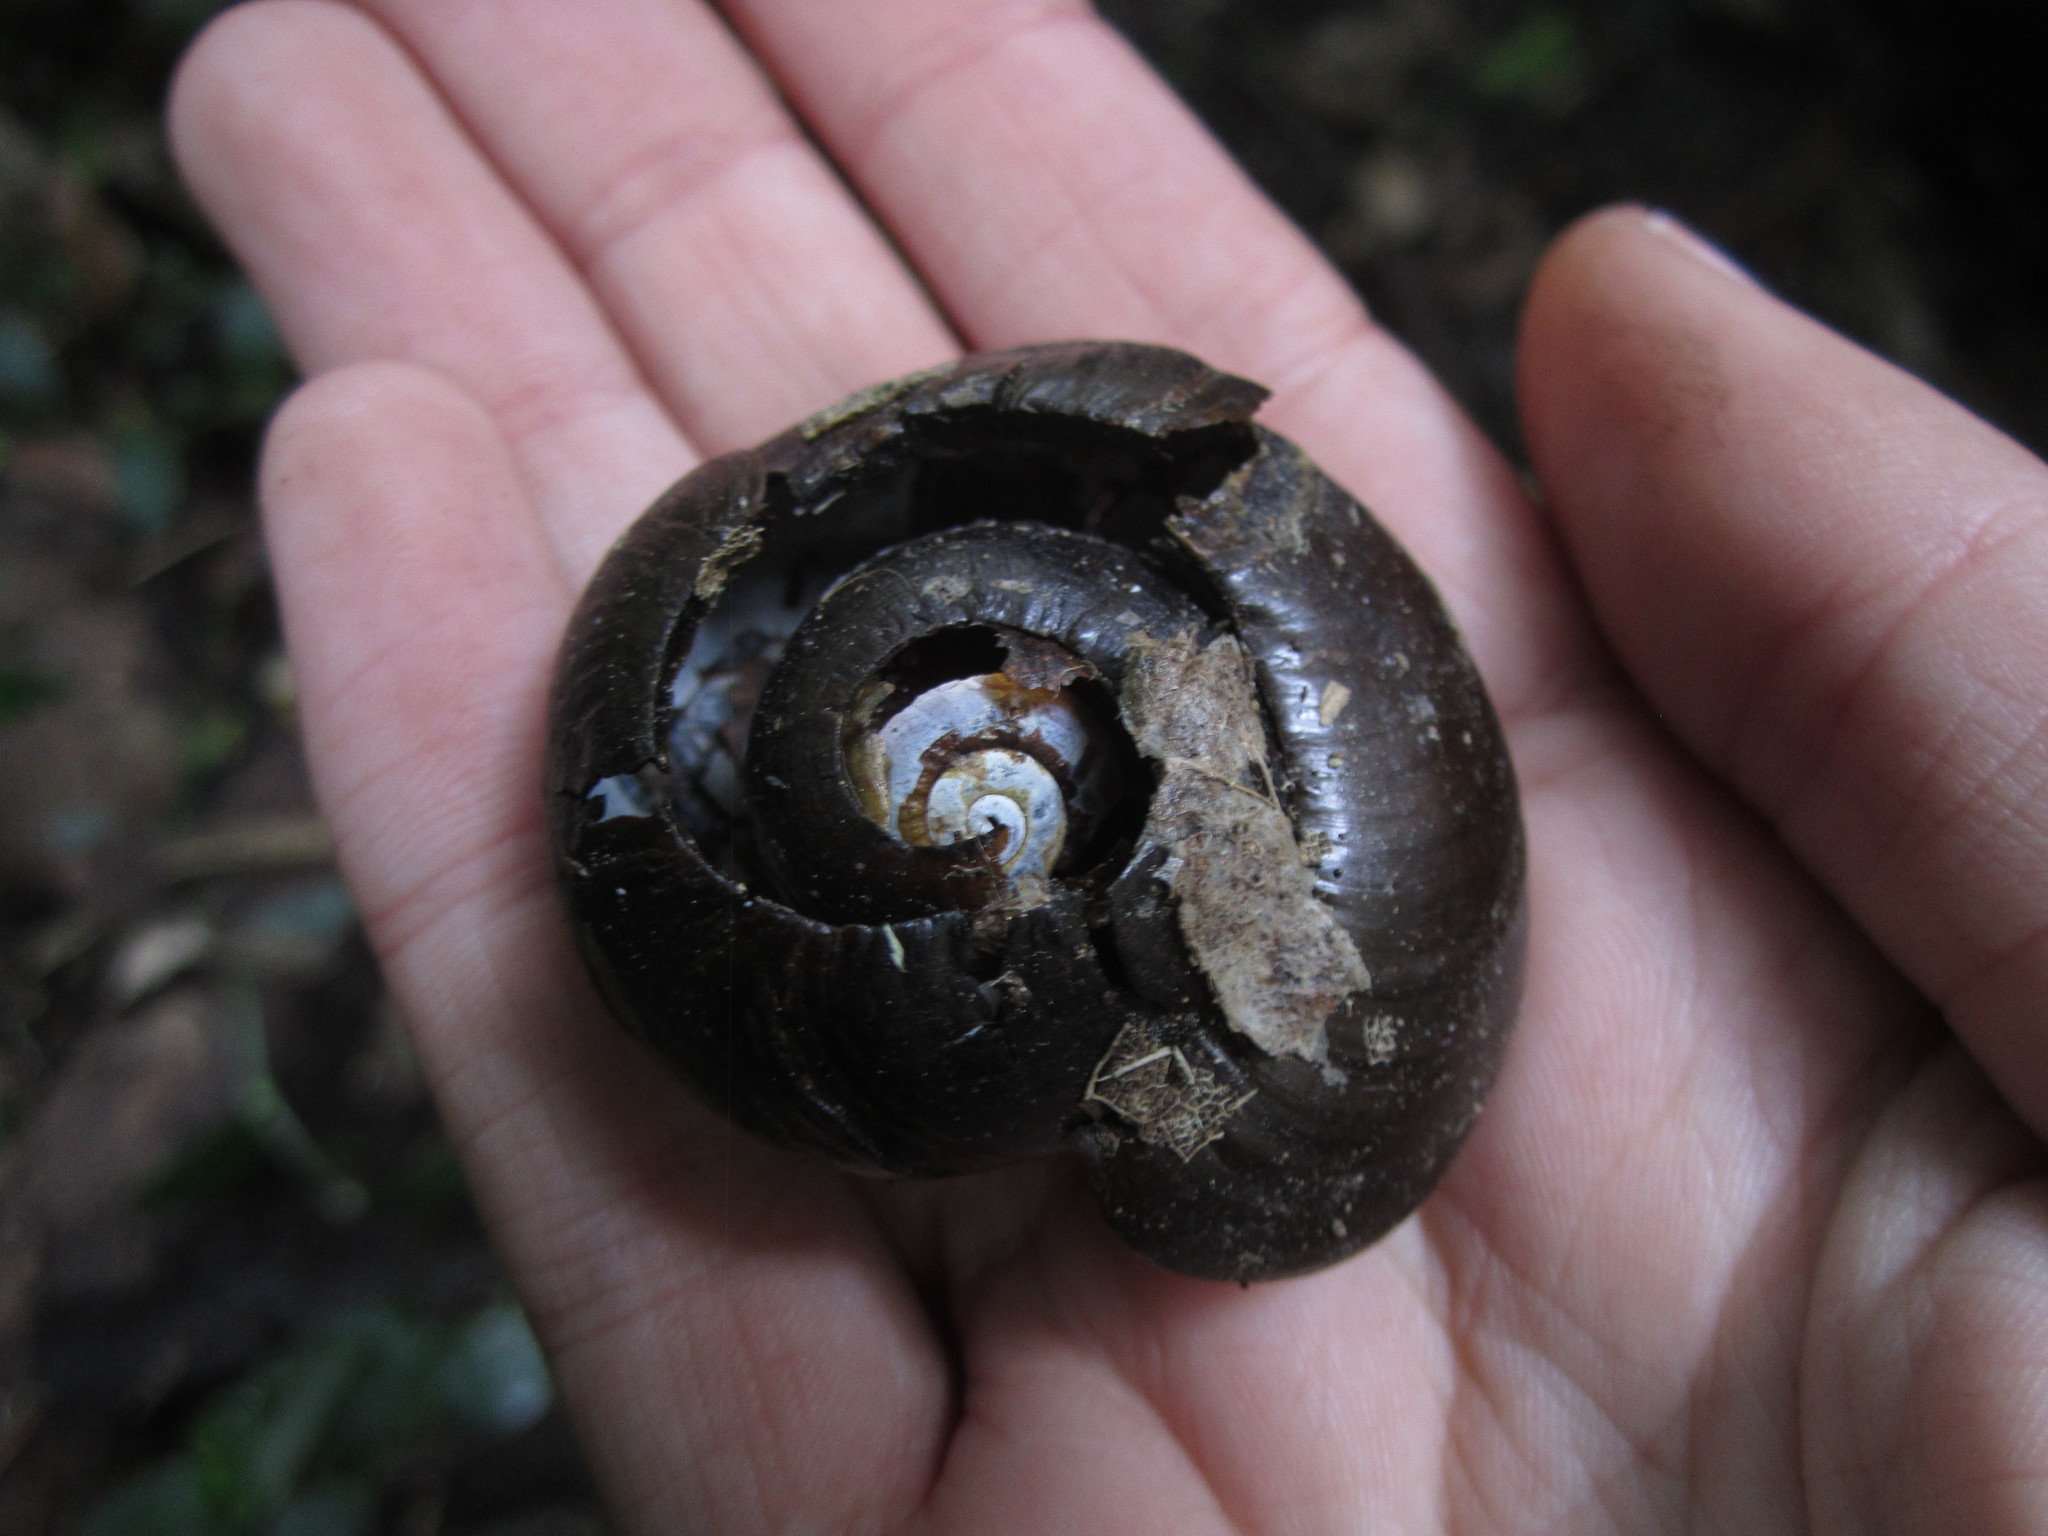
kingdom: Animalia
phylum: Mollusca
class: Gastropoda
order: Stylommatophora
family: Rhytididae
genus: Powelliphanta
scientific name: Powelliphanta traversi
